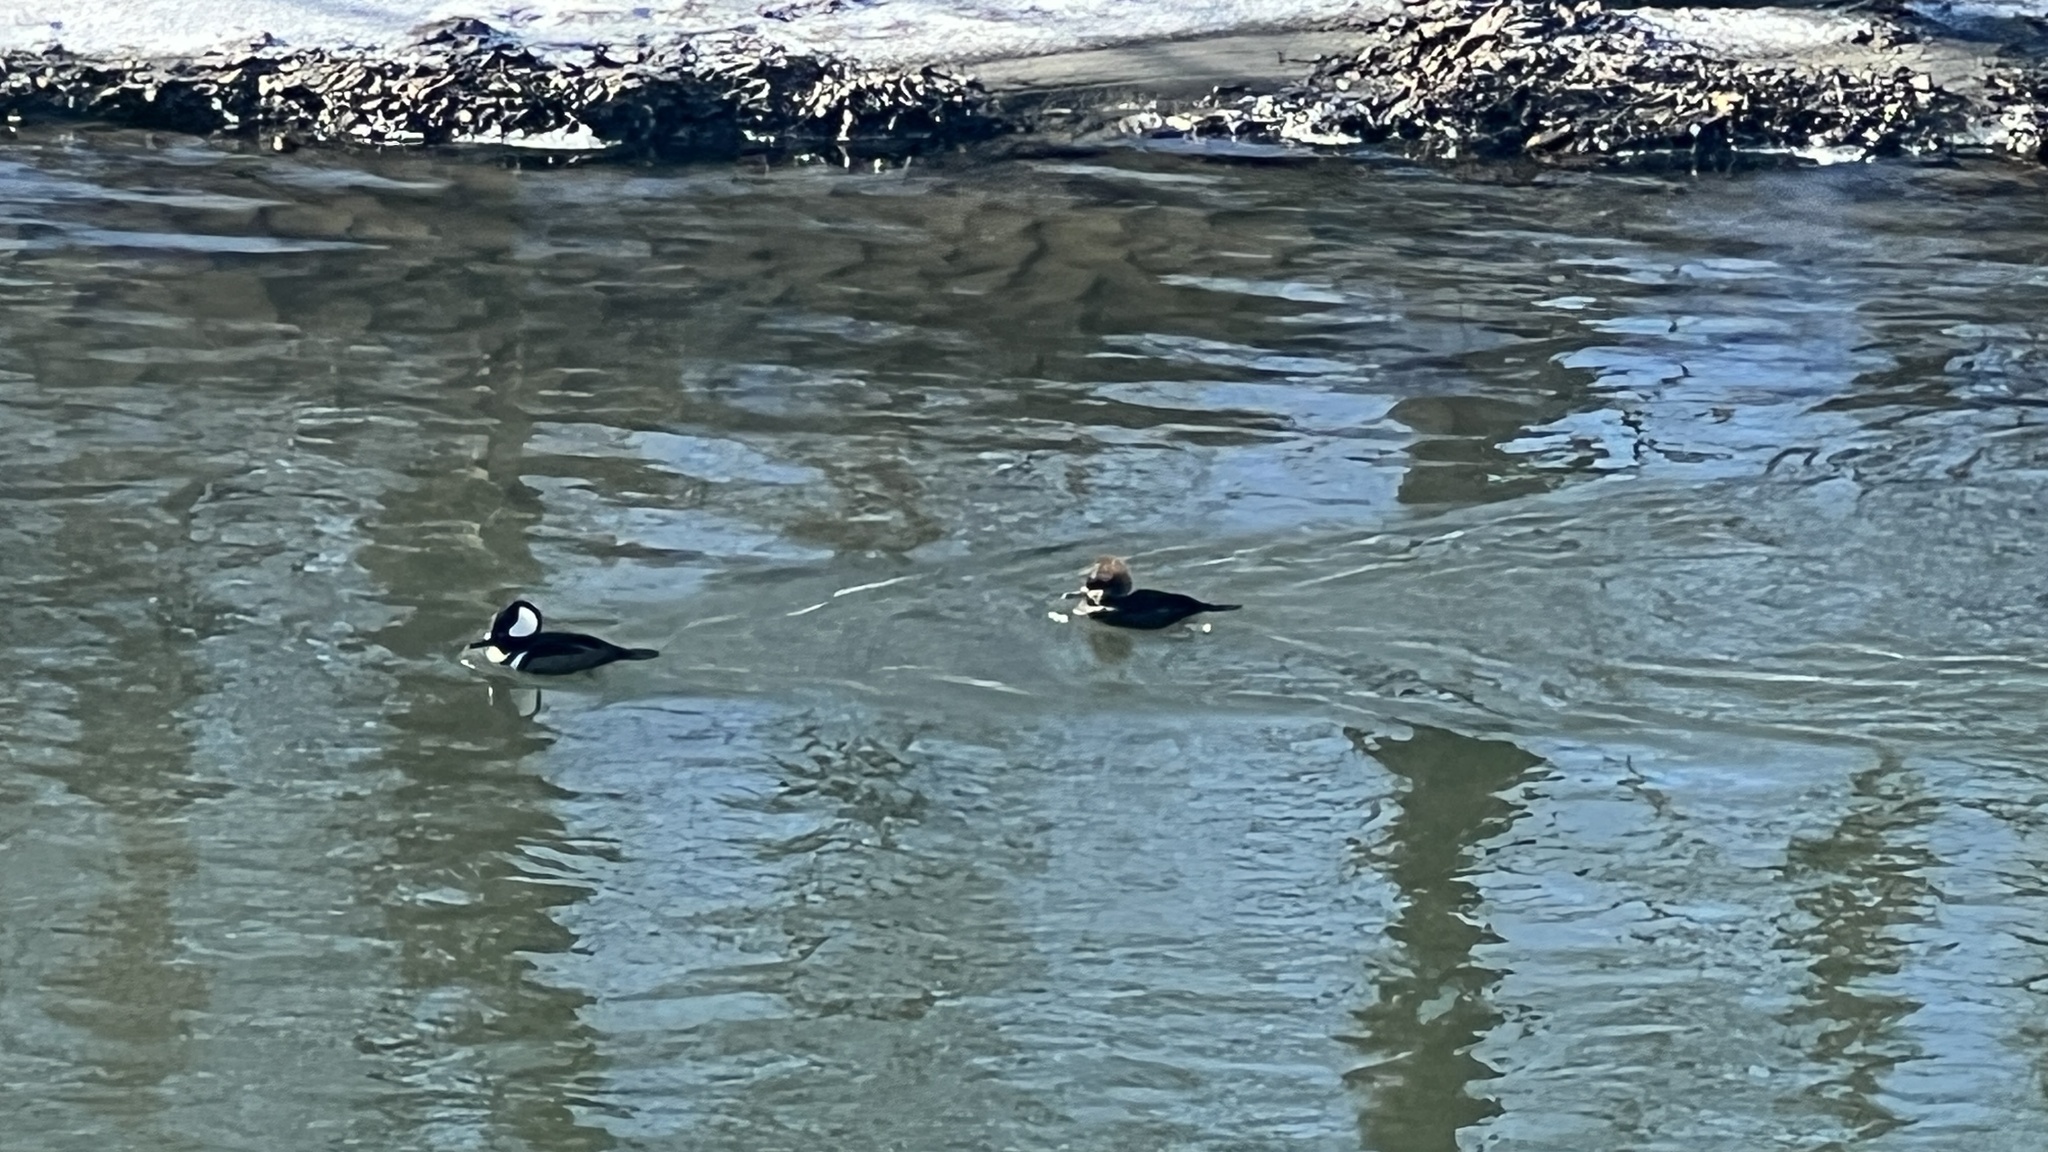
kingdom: Animalia
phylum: Chordata
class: Aves
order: Anseriformes
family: Anatidae
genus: Lophodytes
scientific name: Lophodytes cucullatus
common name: Hooded merganser
